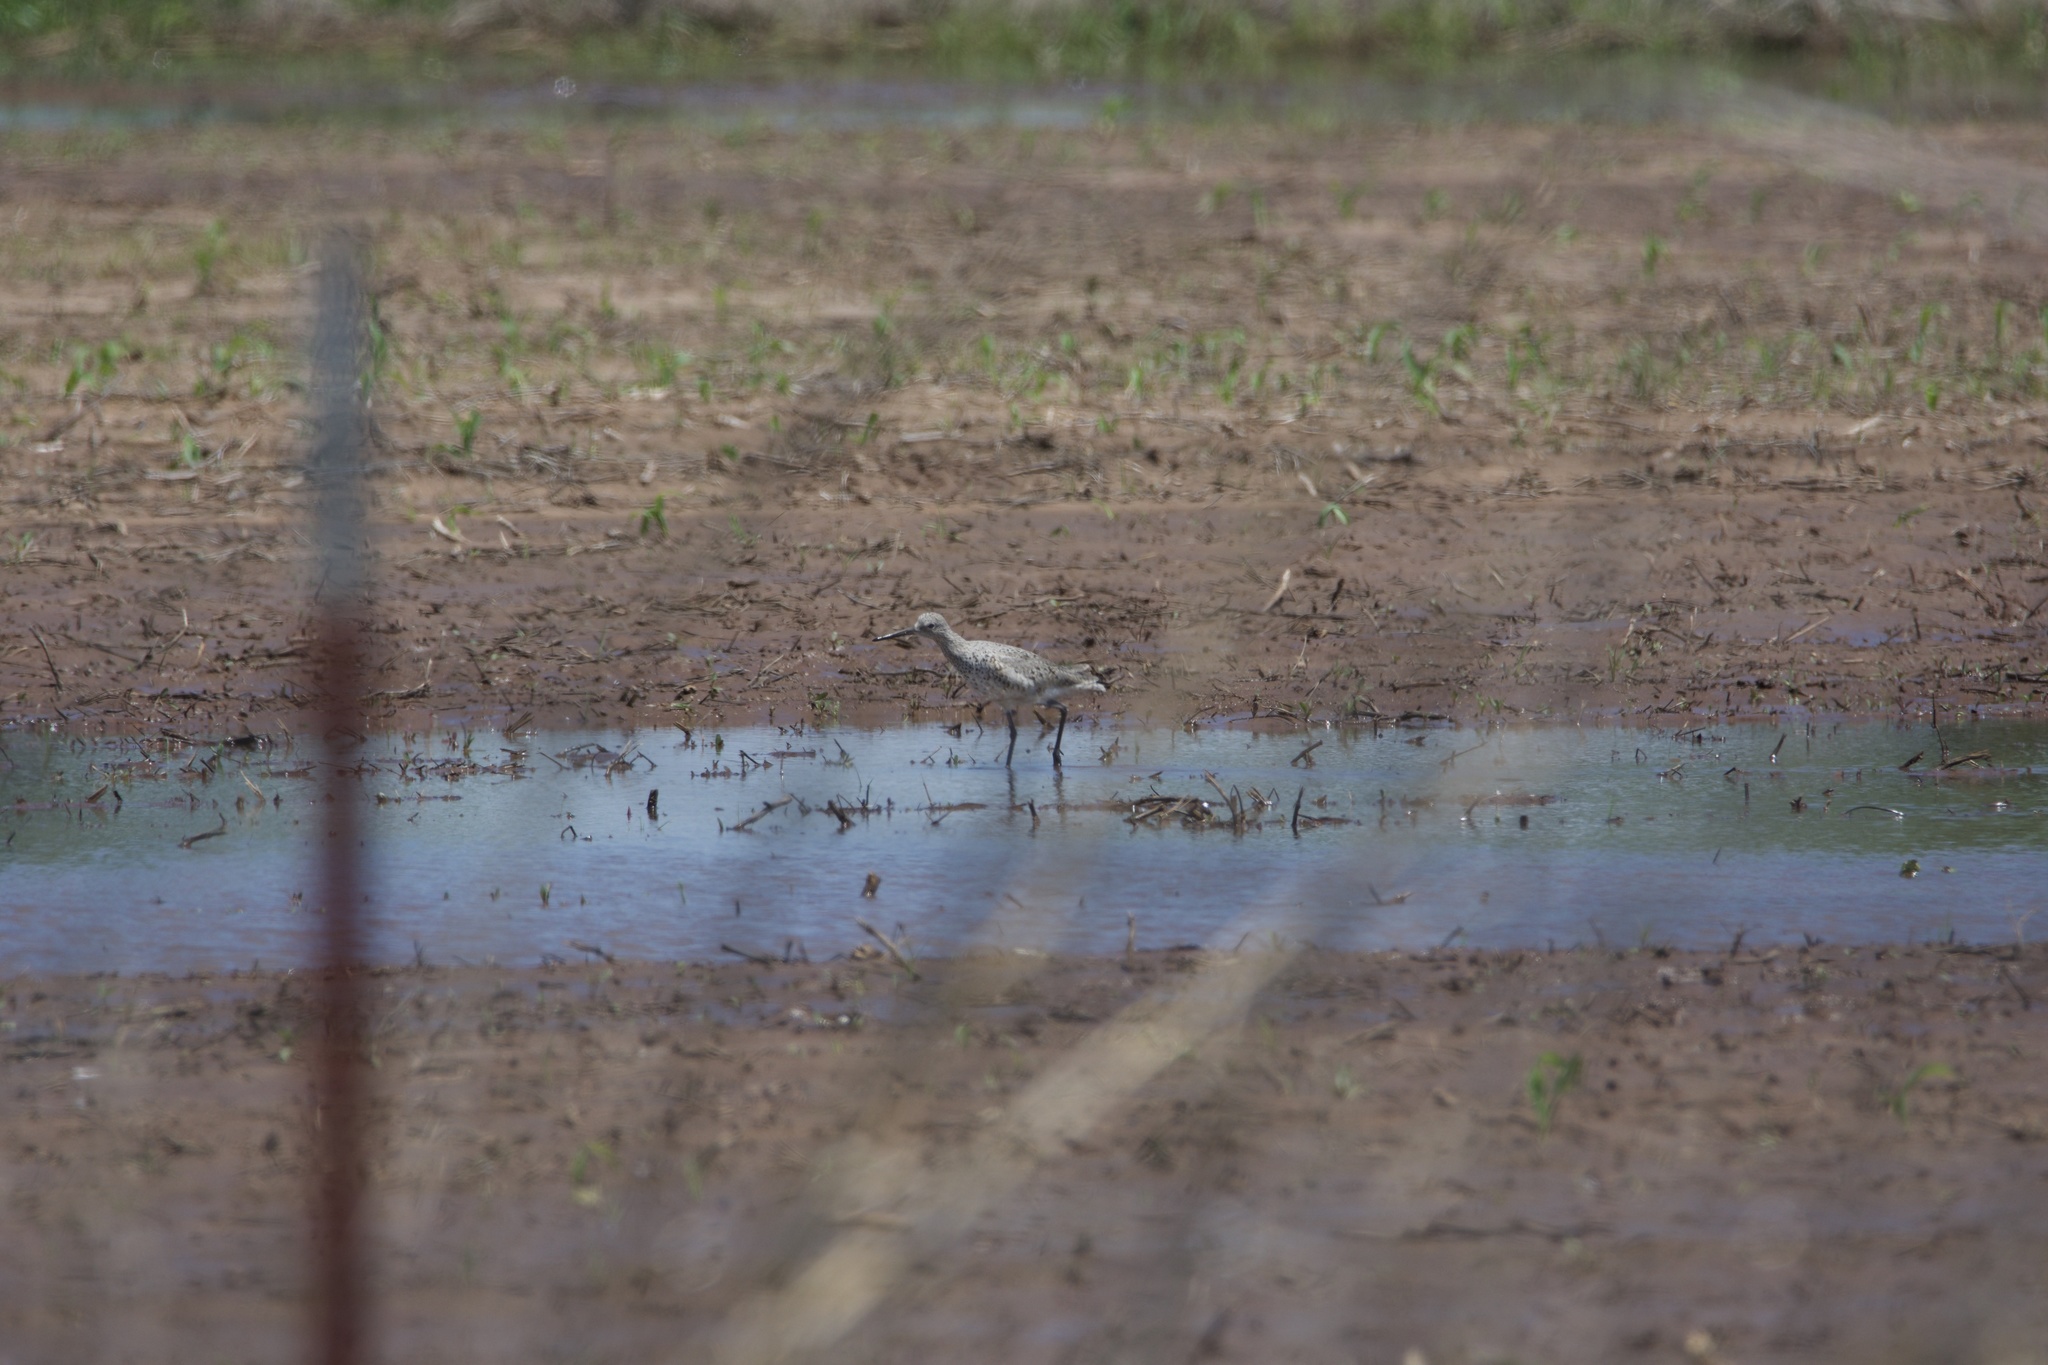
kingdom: Animalia
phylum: Chordata
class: Aves
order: Charadriiformes
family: Scolopacidae
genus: Tringa
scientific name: Tringa semipalmata
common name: Willet
